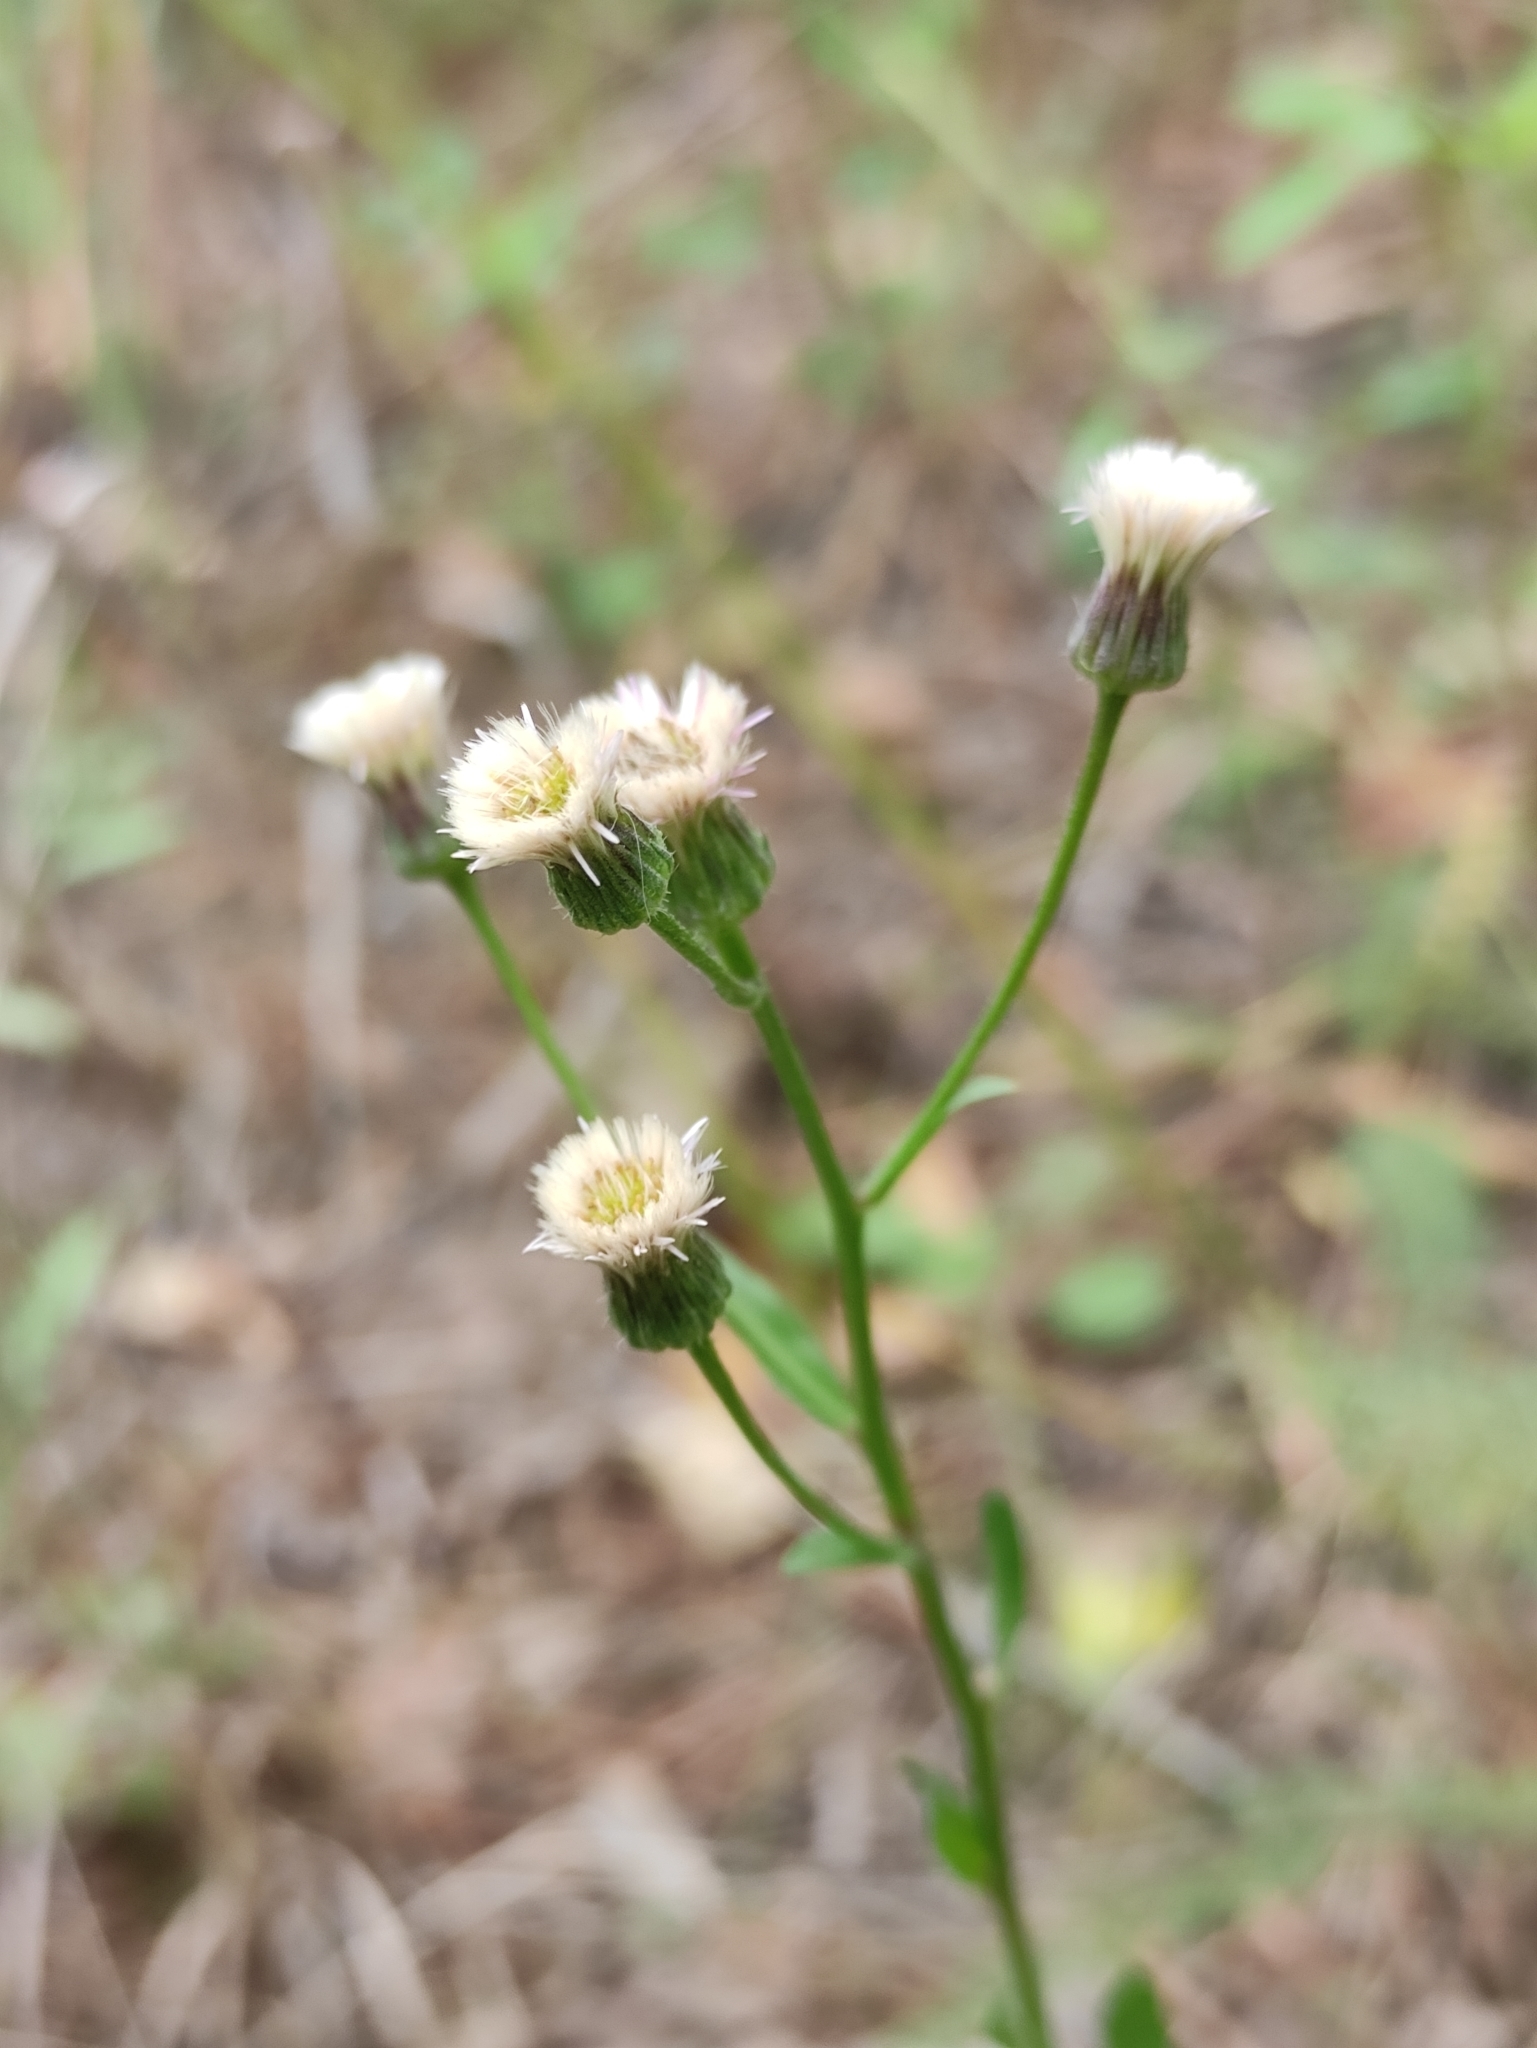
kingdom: Plantae
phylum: Tracheophyta
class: Magnoliopsida
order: Asterales
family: Asteraceae
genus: Erigeron
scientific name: Erigeron acris
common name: Blue fleabane
